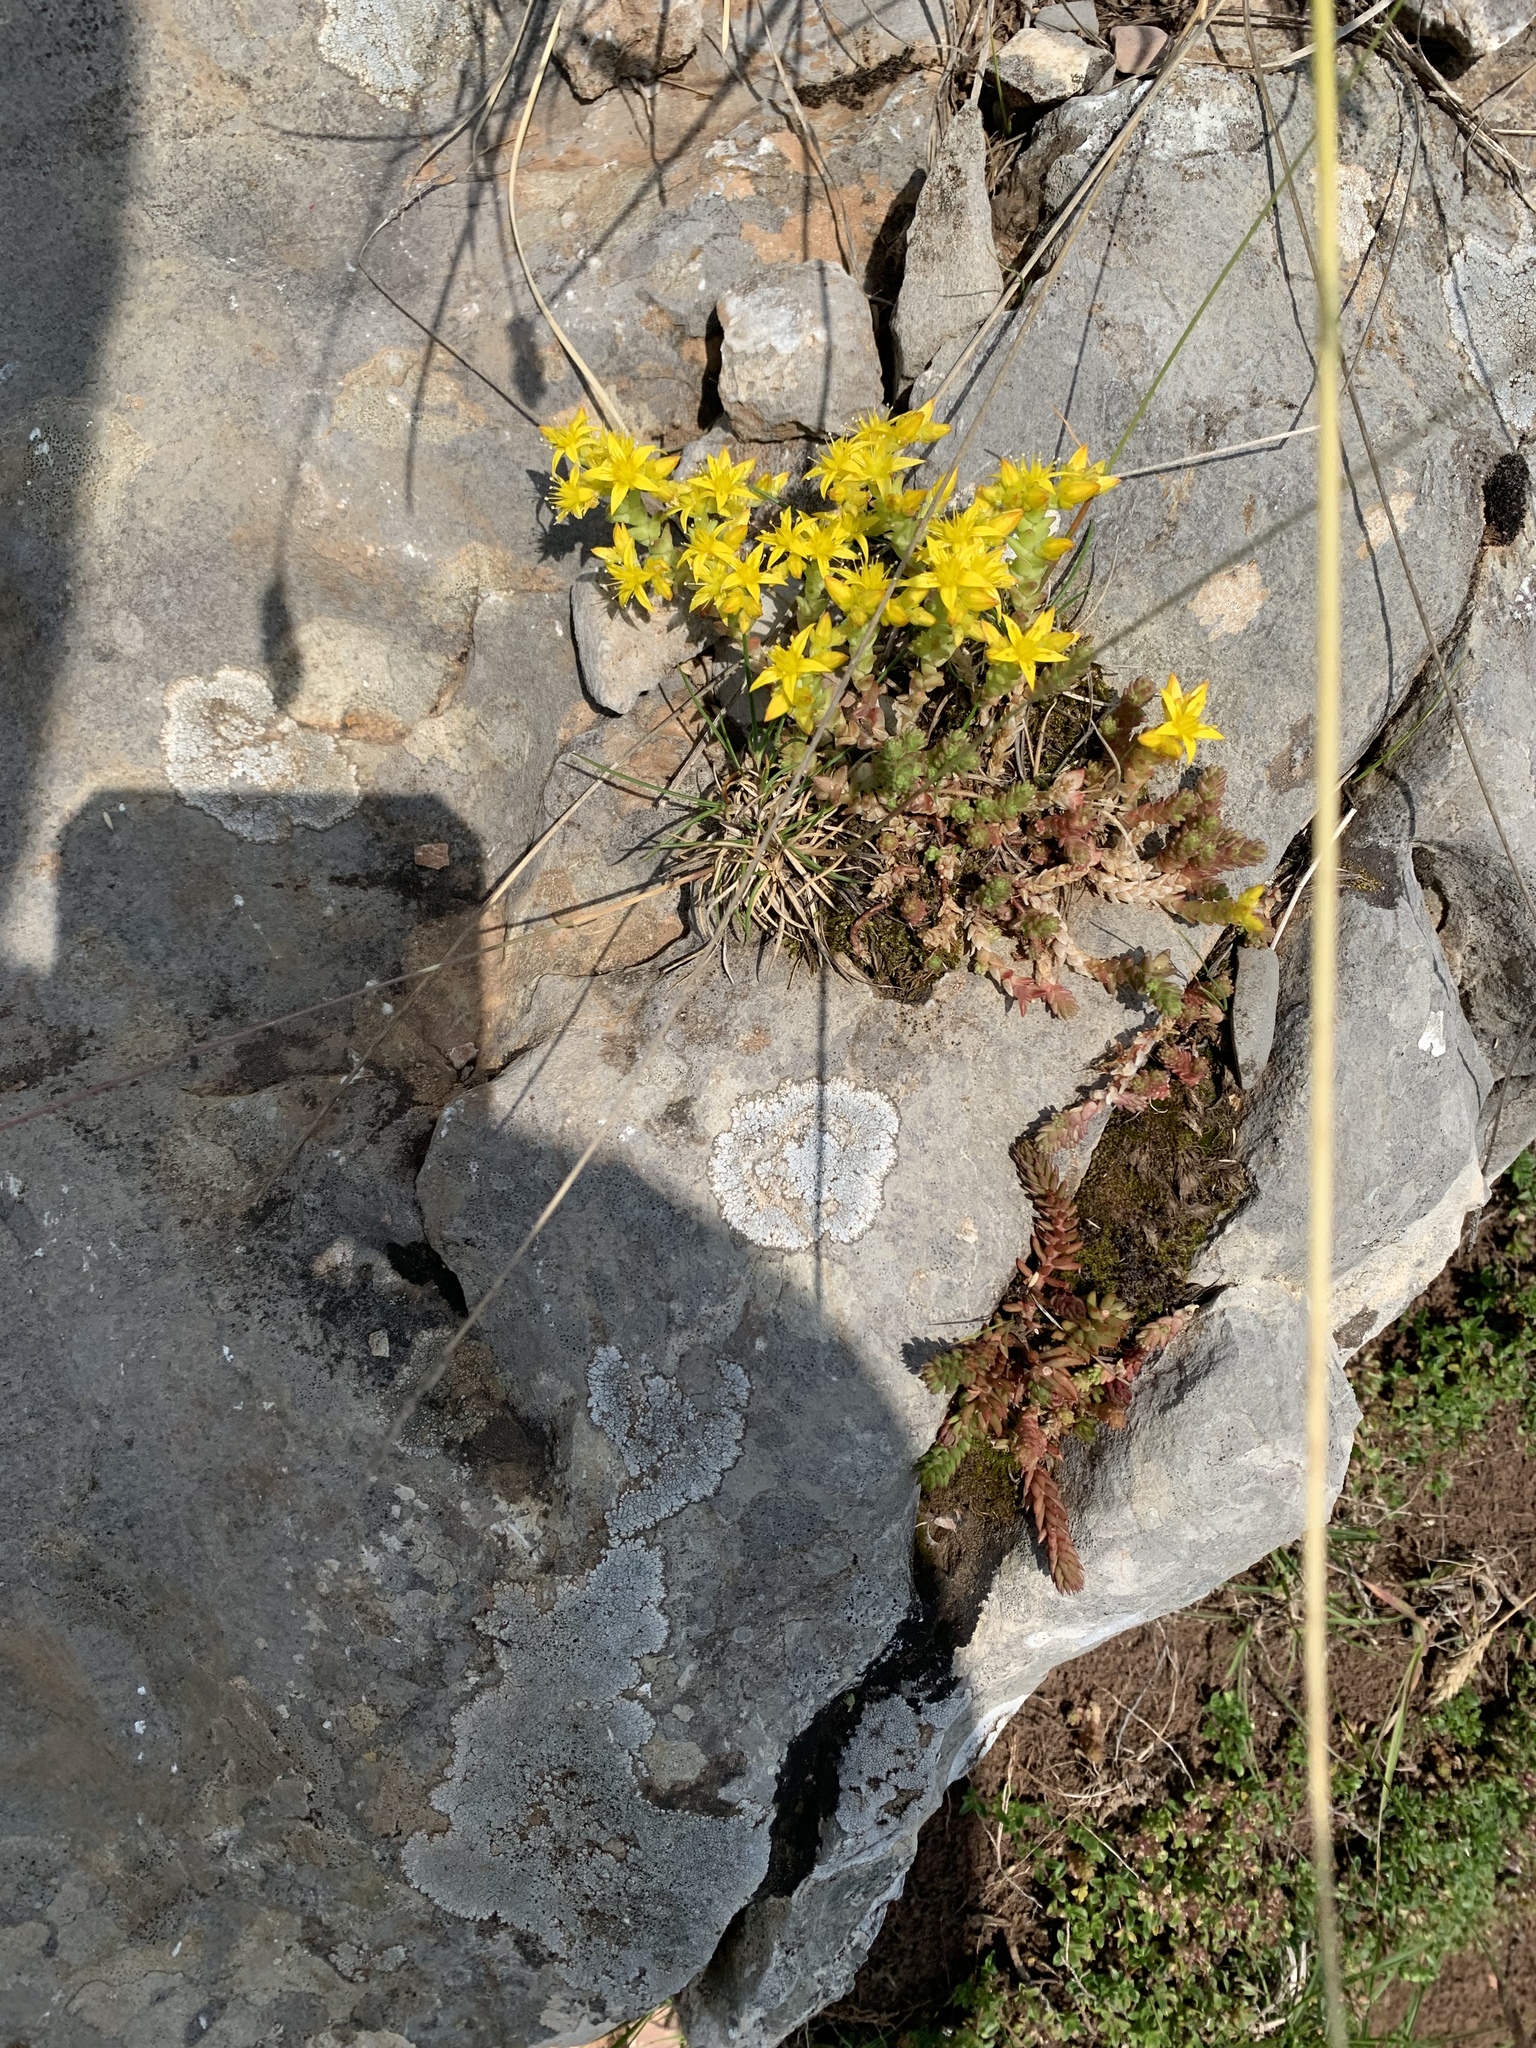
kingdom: Plantae
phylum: Tracheophyta
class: Magnoliopsida
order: Saxifragales
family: Crassulaceae
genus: Sedum
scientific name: Sedum acre
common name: Biting stonecrop
